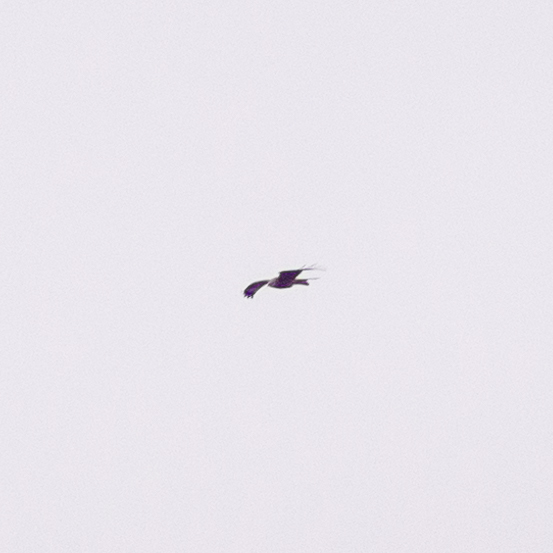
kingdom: Animalia
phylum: Chordata
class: Aves
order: Accipitriformes
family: Accipitridae
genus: Milvus
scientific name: Milvus milvus
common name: Red kite
